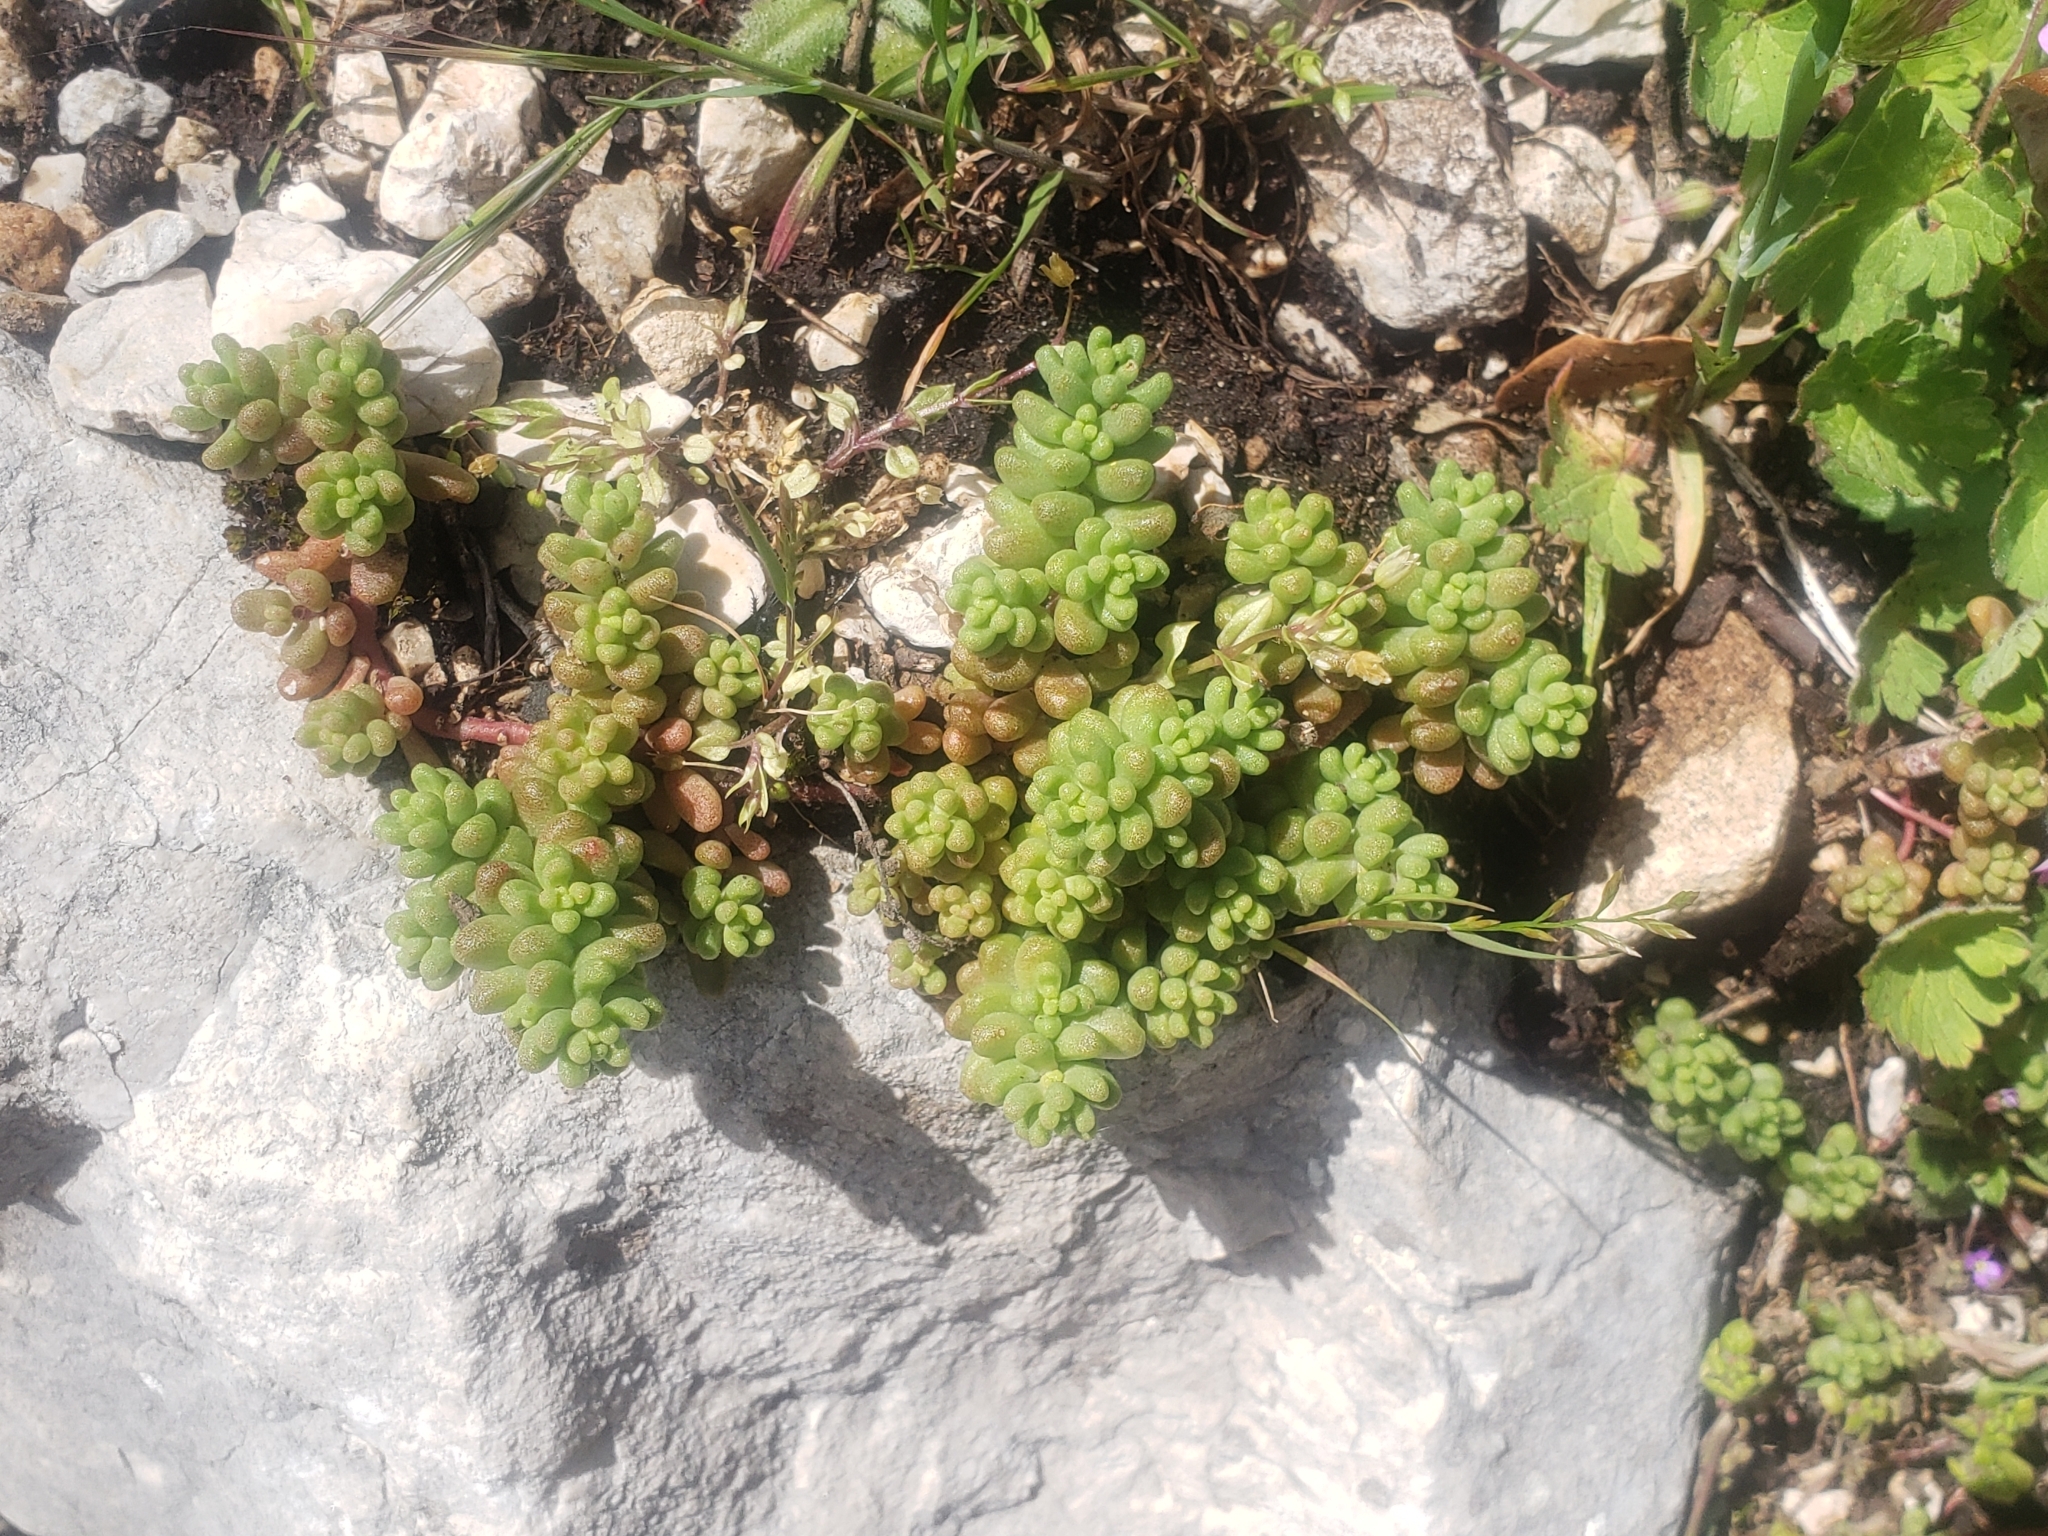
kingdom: Plantae
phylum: Tracheophyta
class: Magnoliopsida
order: Saxifragales
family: Crassulaceae
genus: Sedum
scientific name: Sedum album
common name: White stonecrop
